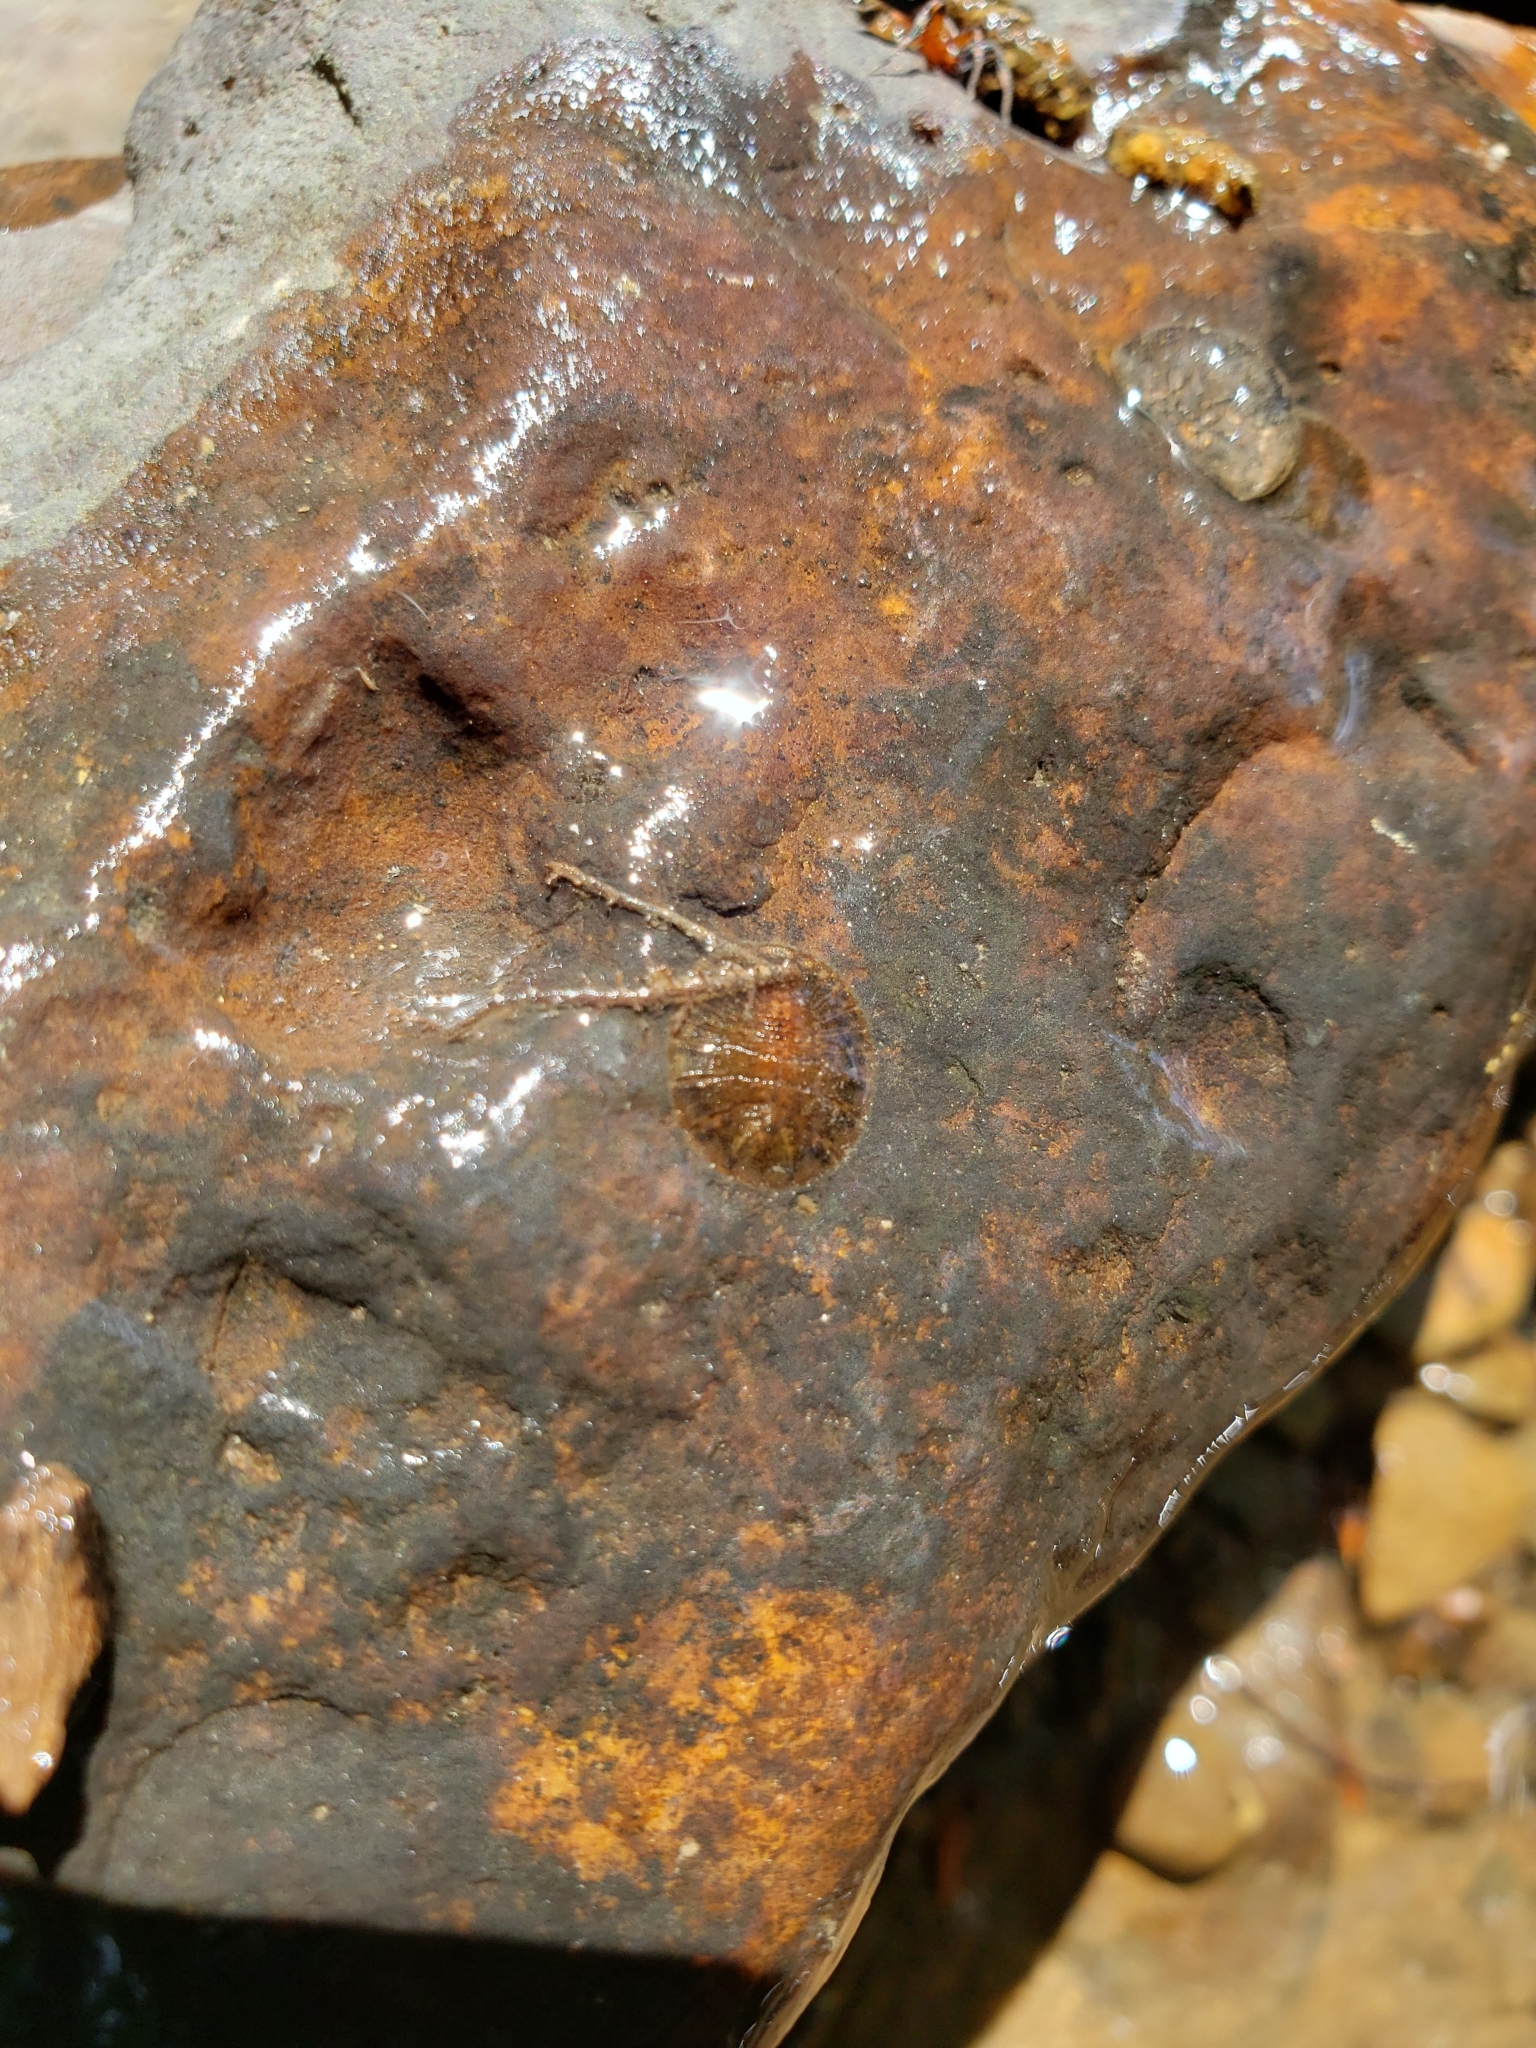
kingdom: Animalia
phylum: Arthropoda
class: Insecta
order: Coleoptera
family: Psephenidae
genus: Psephenus
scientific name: Psephenus herricki
